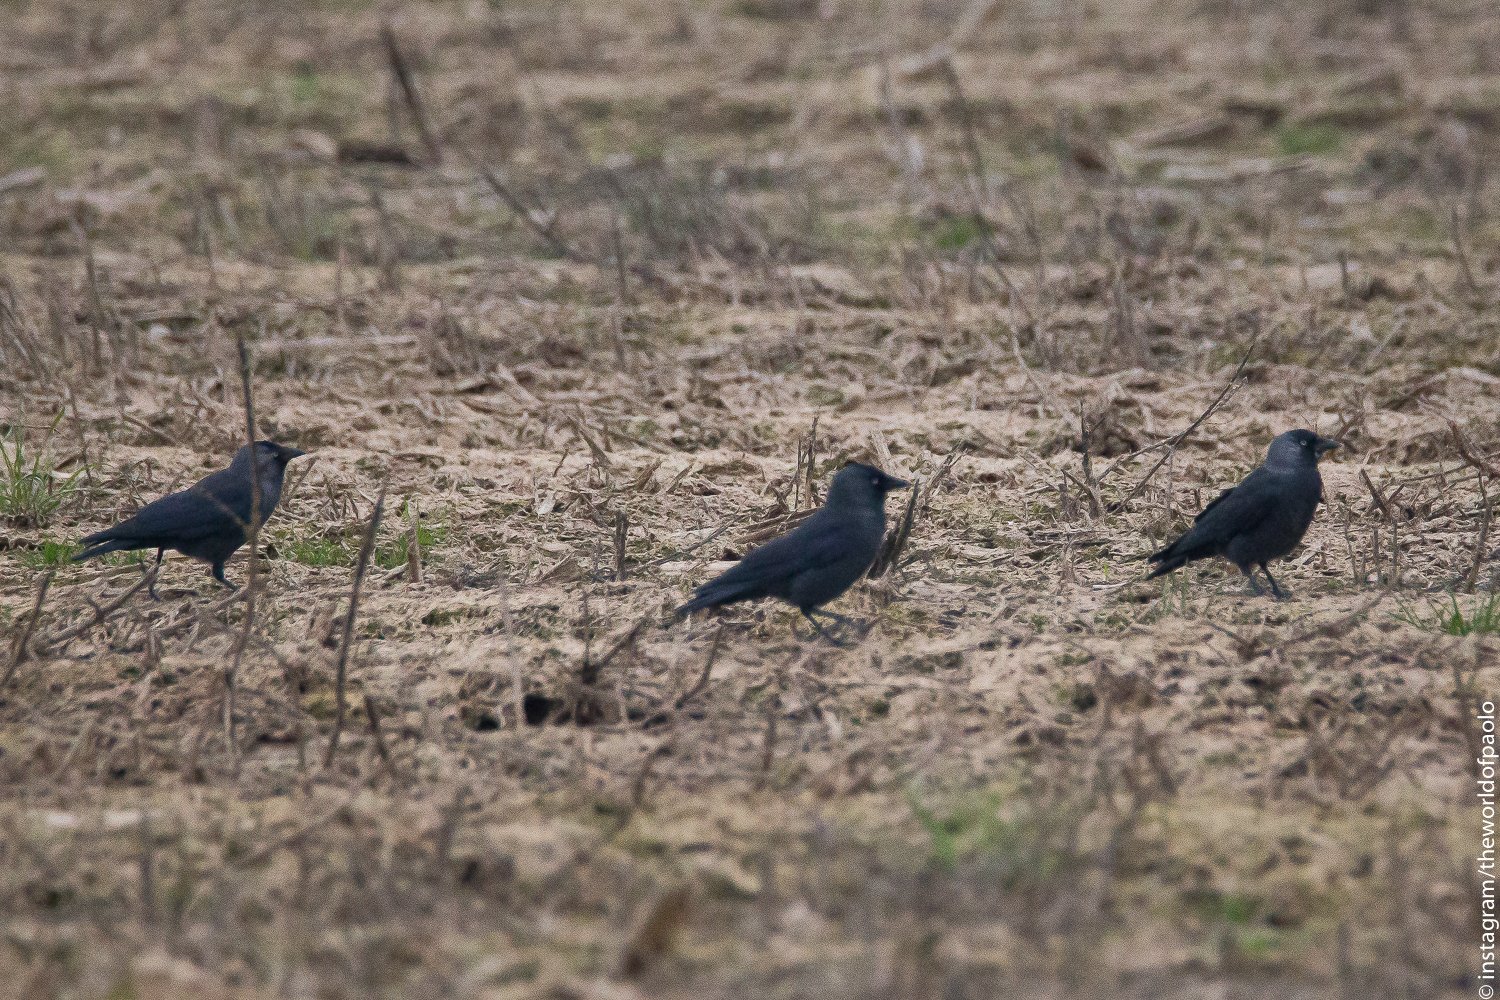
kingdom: Animalia
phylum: Chordata
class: Aves
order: Passeriformes
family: Corvidae
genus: Coloeus
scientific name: Coloeus monedula
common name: Western jackdaw
